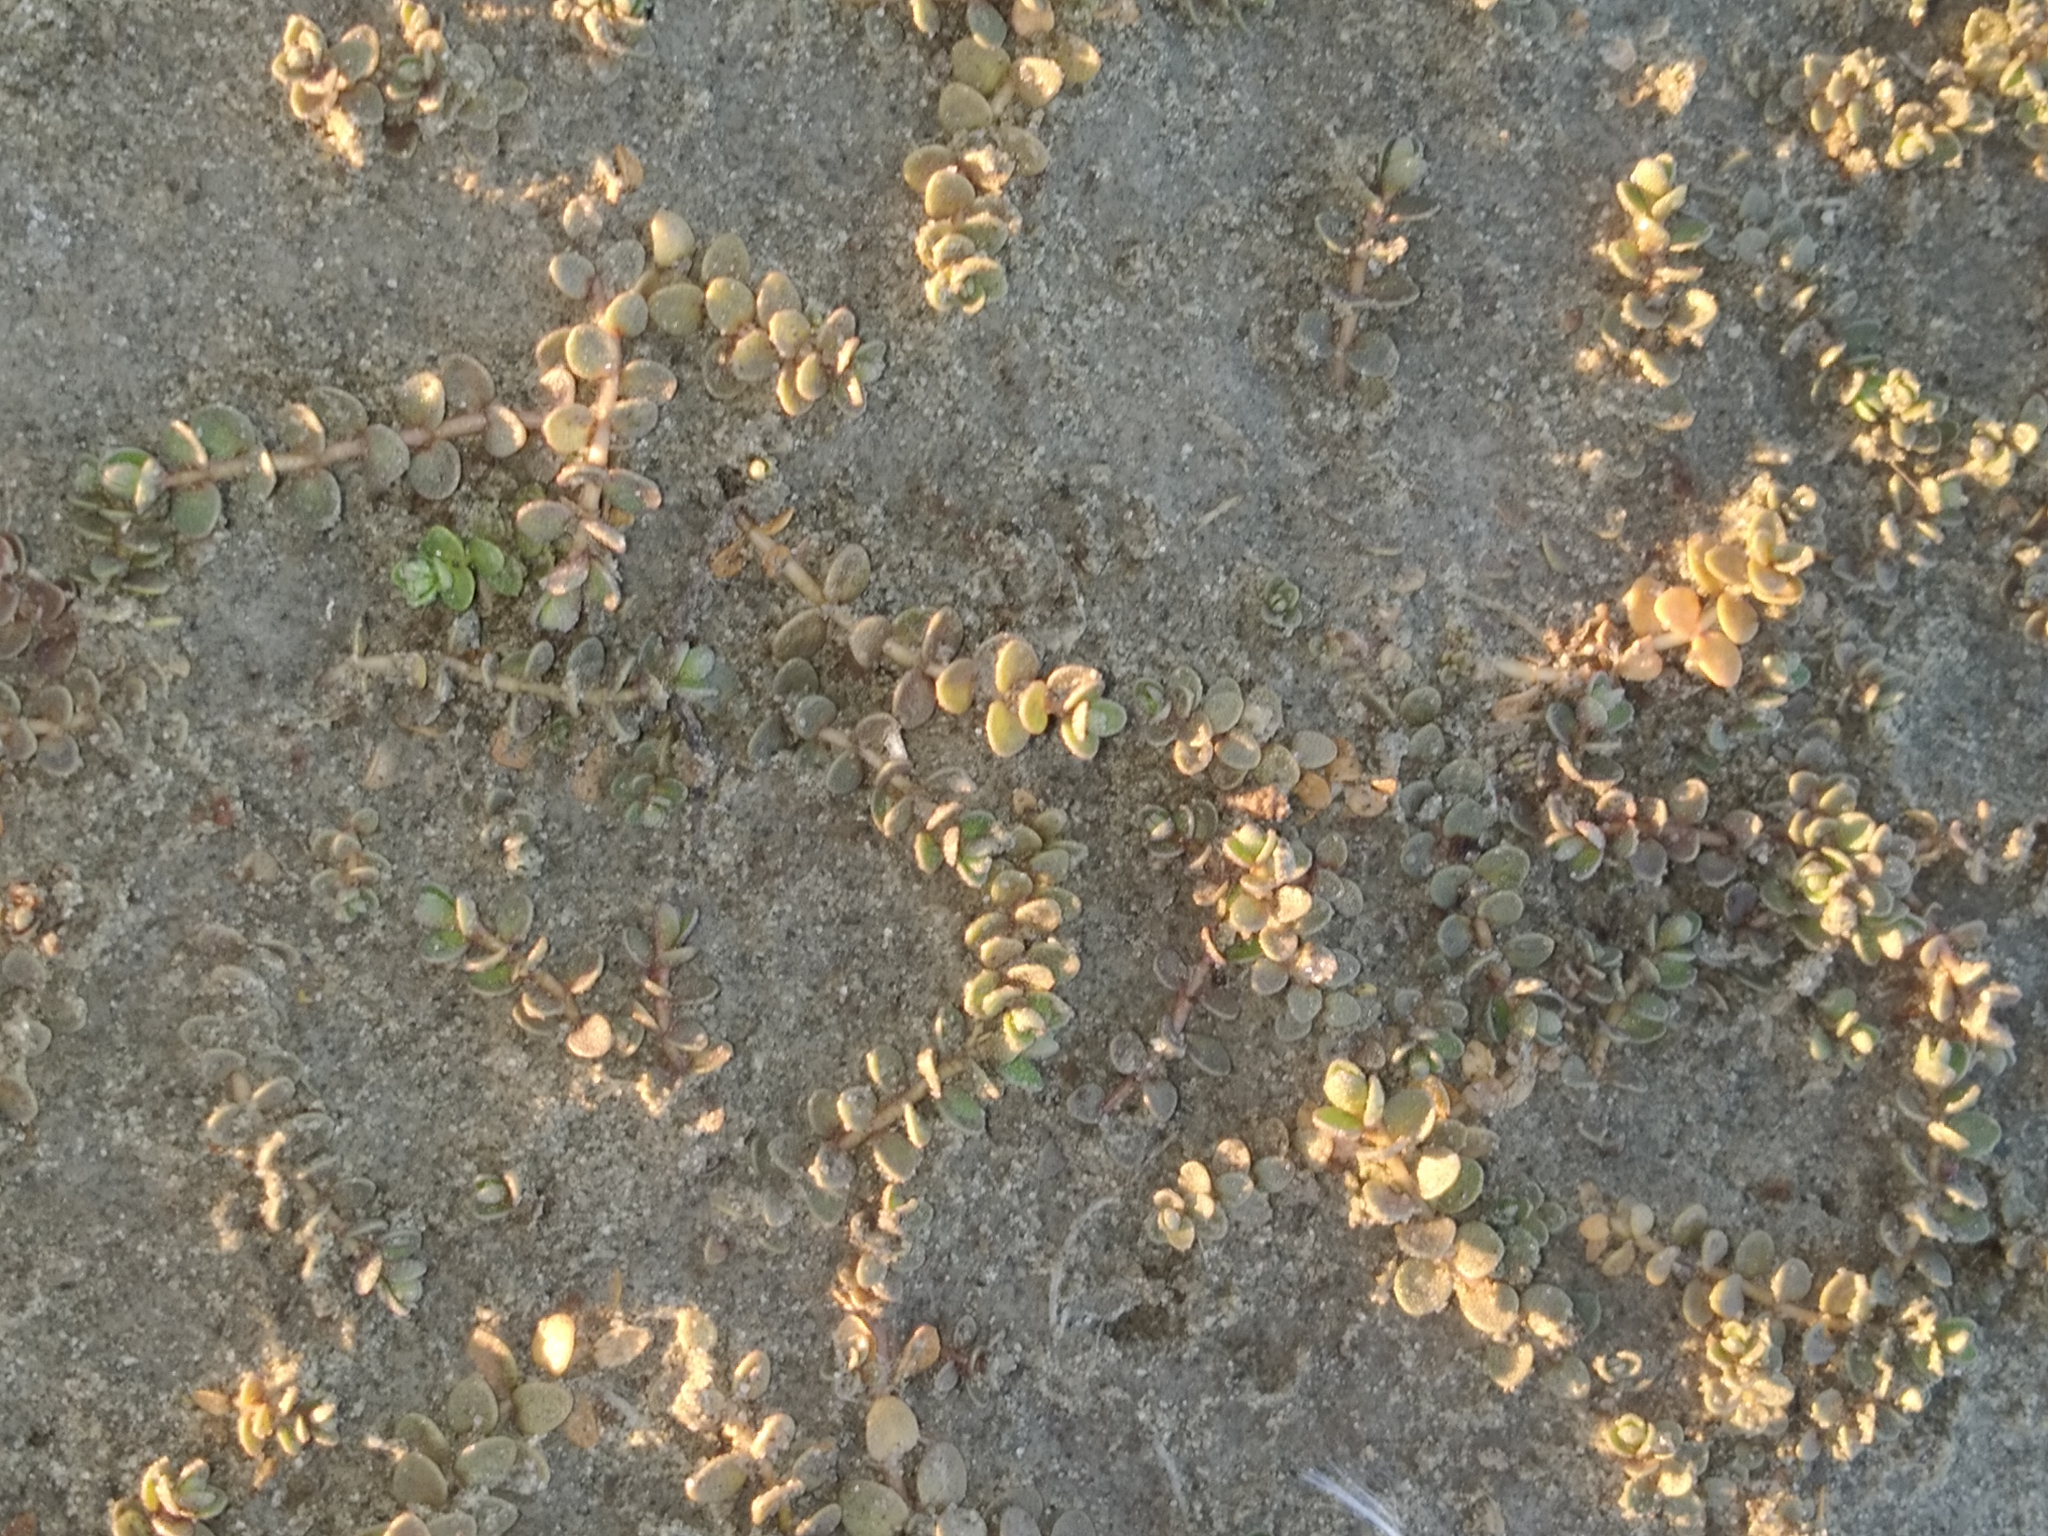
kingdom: Plantae
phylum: Tracheophyta
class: Magnoliopsida
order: Ericales
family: Primulaceae
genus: Samolus
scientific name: Samolus repens
